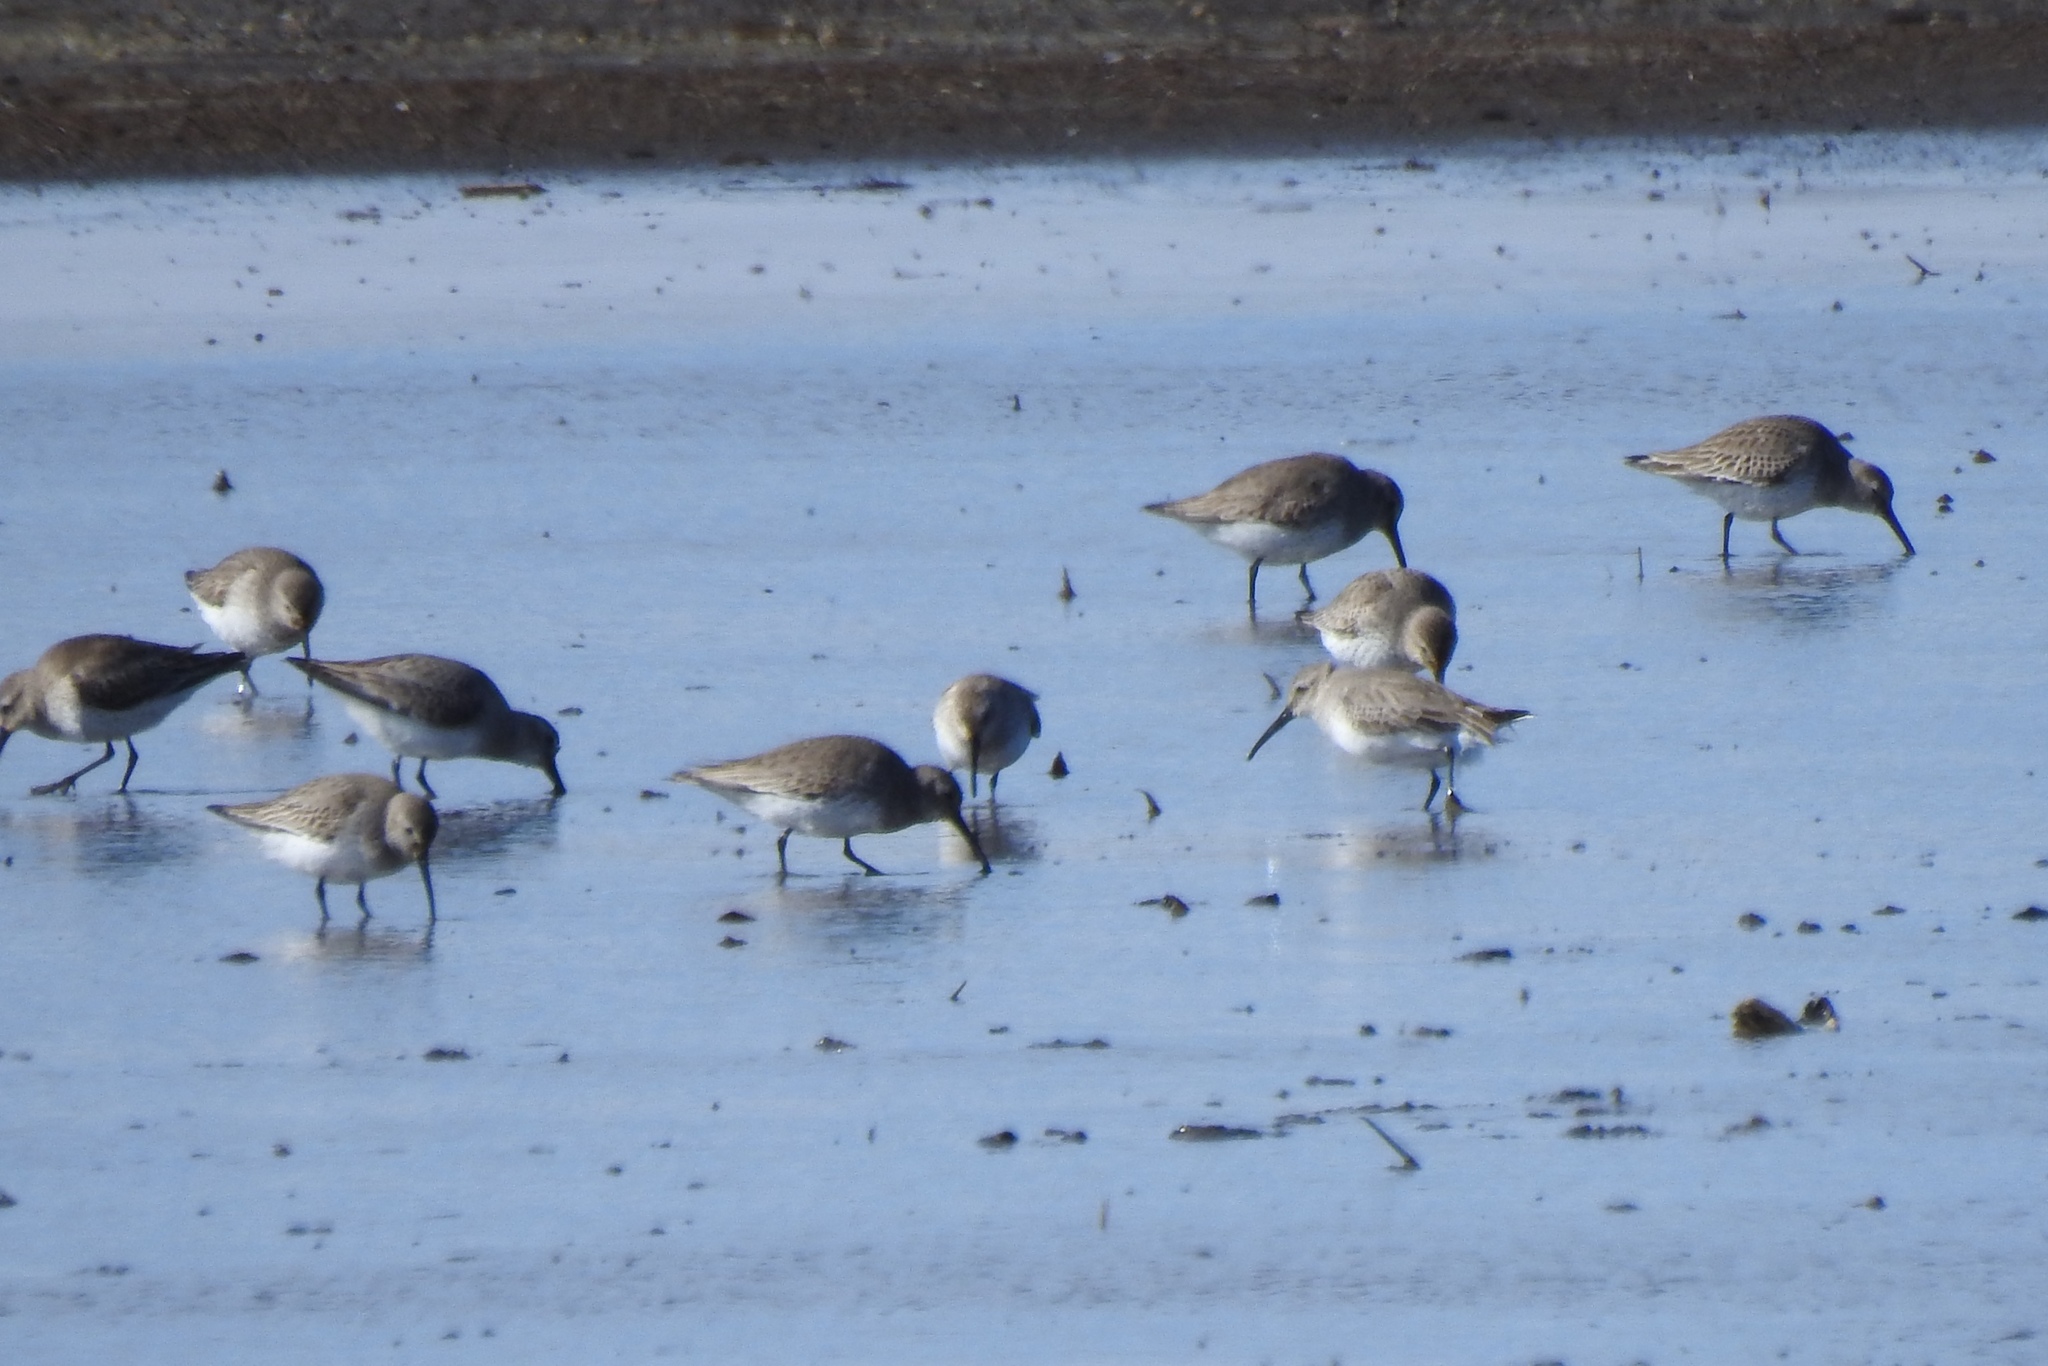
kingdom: Animalia
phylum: Chordata
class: Aves
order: Charadriiformes
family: Scolopacidae
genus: Calidris
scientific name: Calidris alpina
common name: Dunlin
